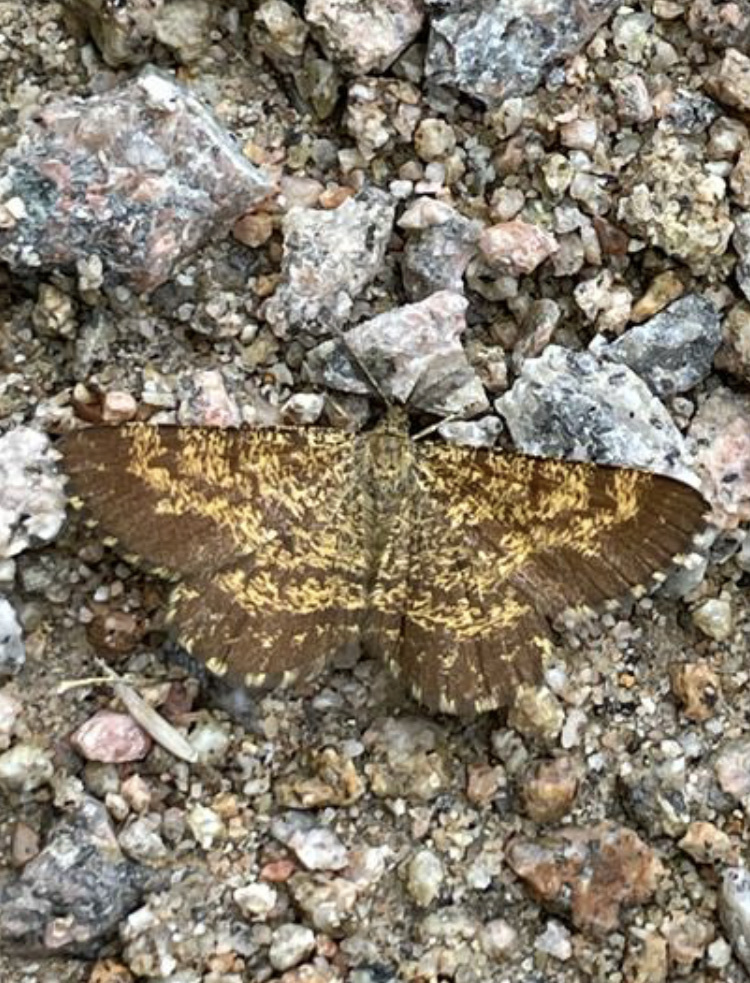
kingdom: Animalia
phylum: Arthropoda
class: Insecta
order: Lepidoptera
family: Geometridae
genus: Ematurga
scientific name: Ematurga atomaria
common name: Common heath
